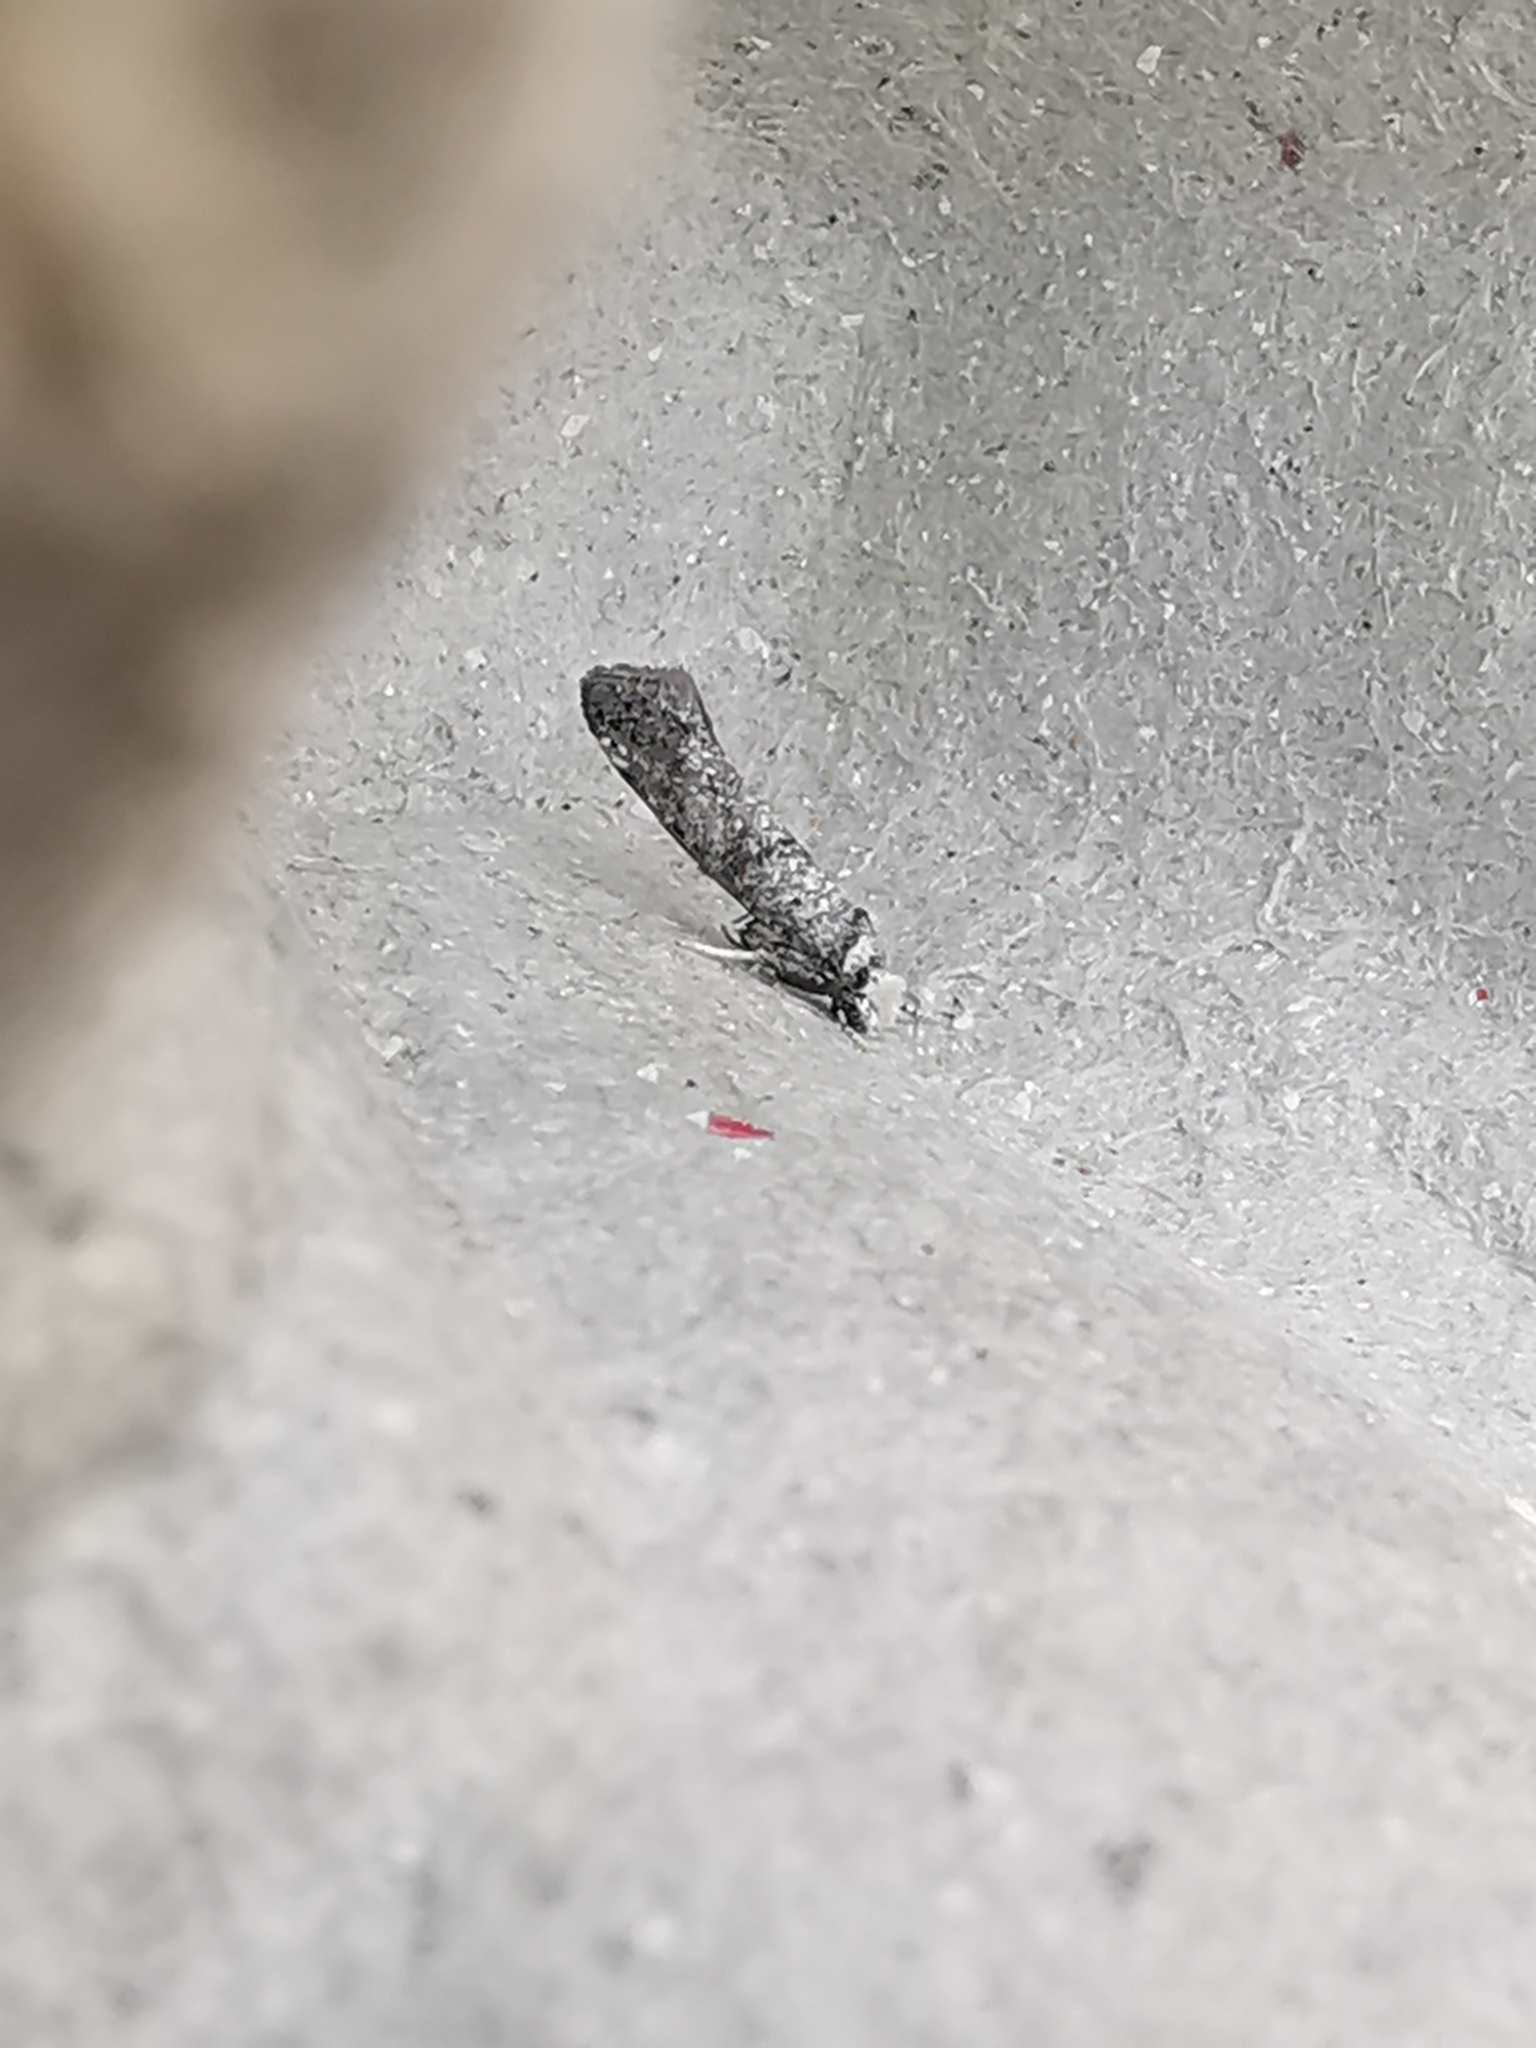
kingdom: Animalia
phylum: Arthropoda
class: Insecta
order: Lepidoptera
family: Yponomeutidae
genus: Paraswammerdamia
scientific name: Paraswammerdamia lutarea
